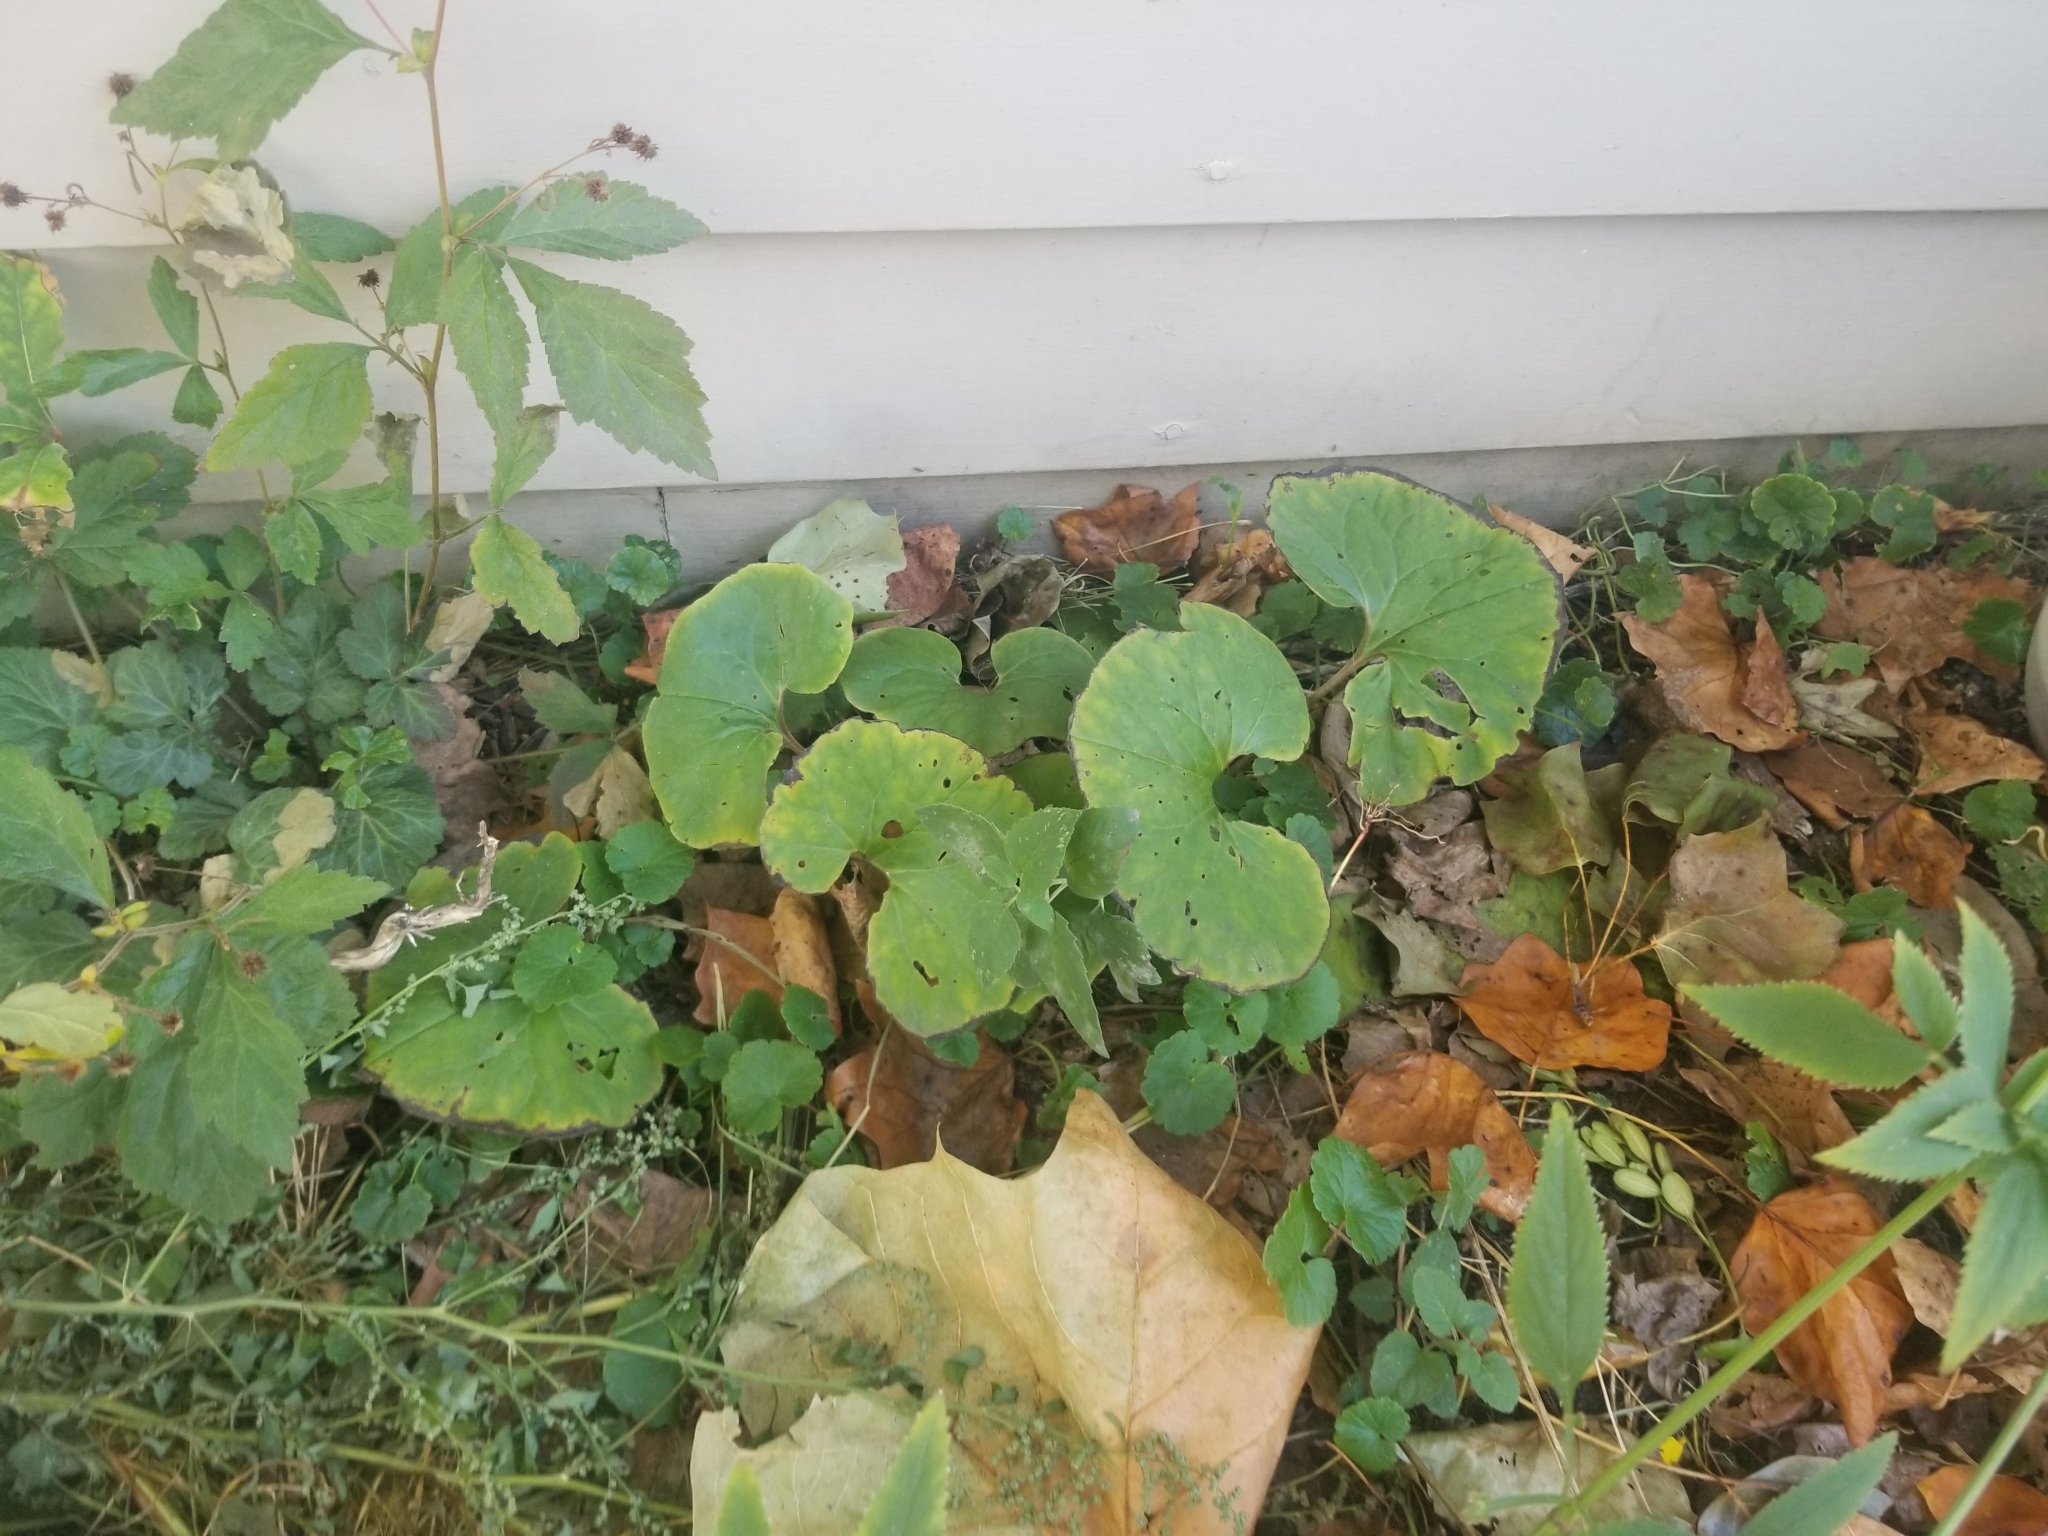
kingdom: Plantae
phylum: Tracheophyta
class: Magnoliopsida
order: Piperales
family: Aristolochiaceae
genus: Asarum
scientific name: Asarum canadense
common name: Wild ginger
